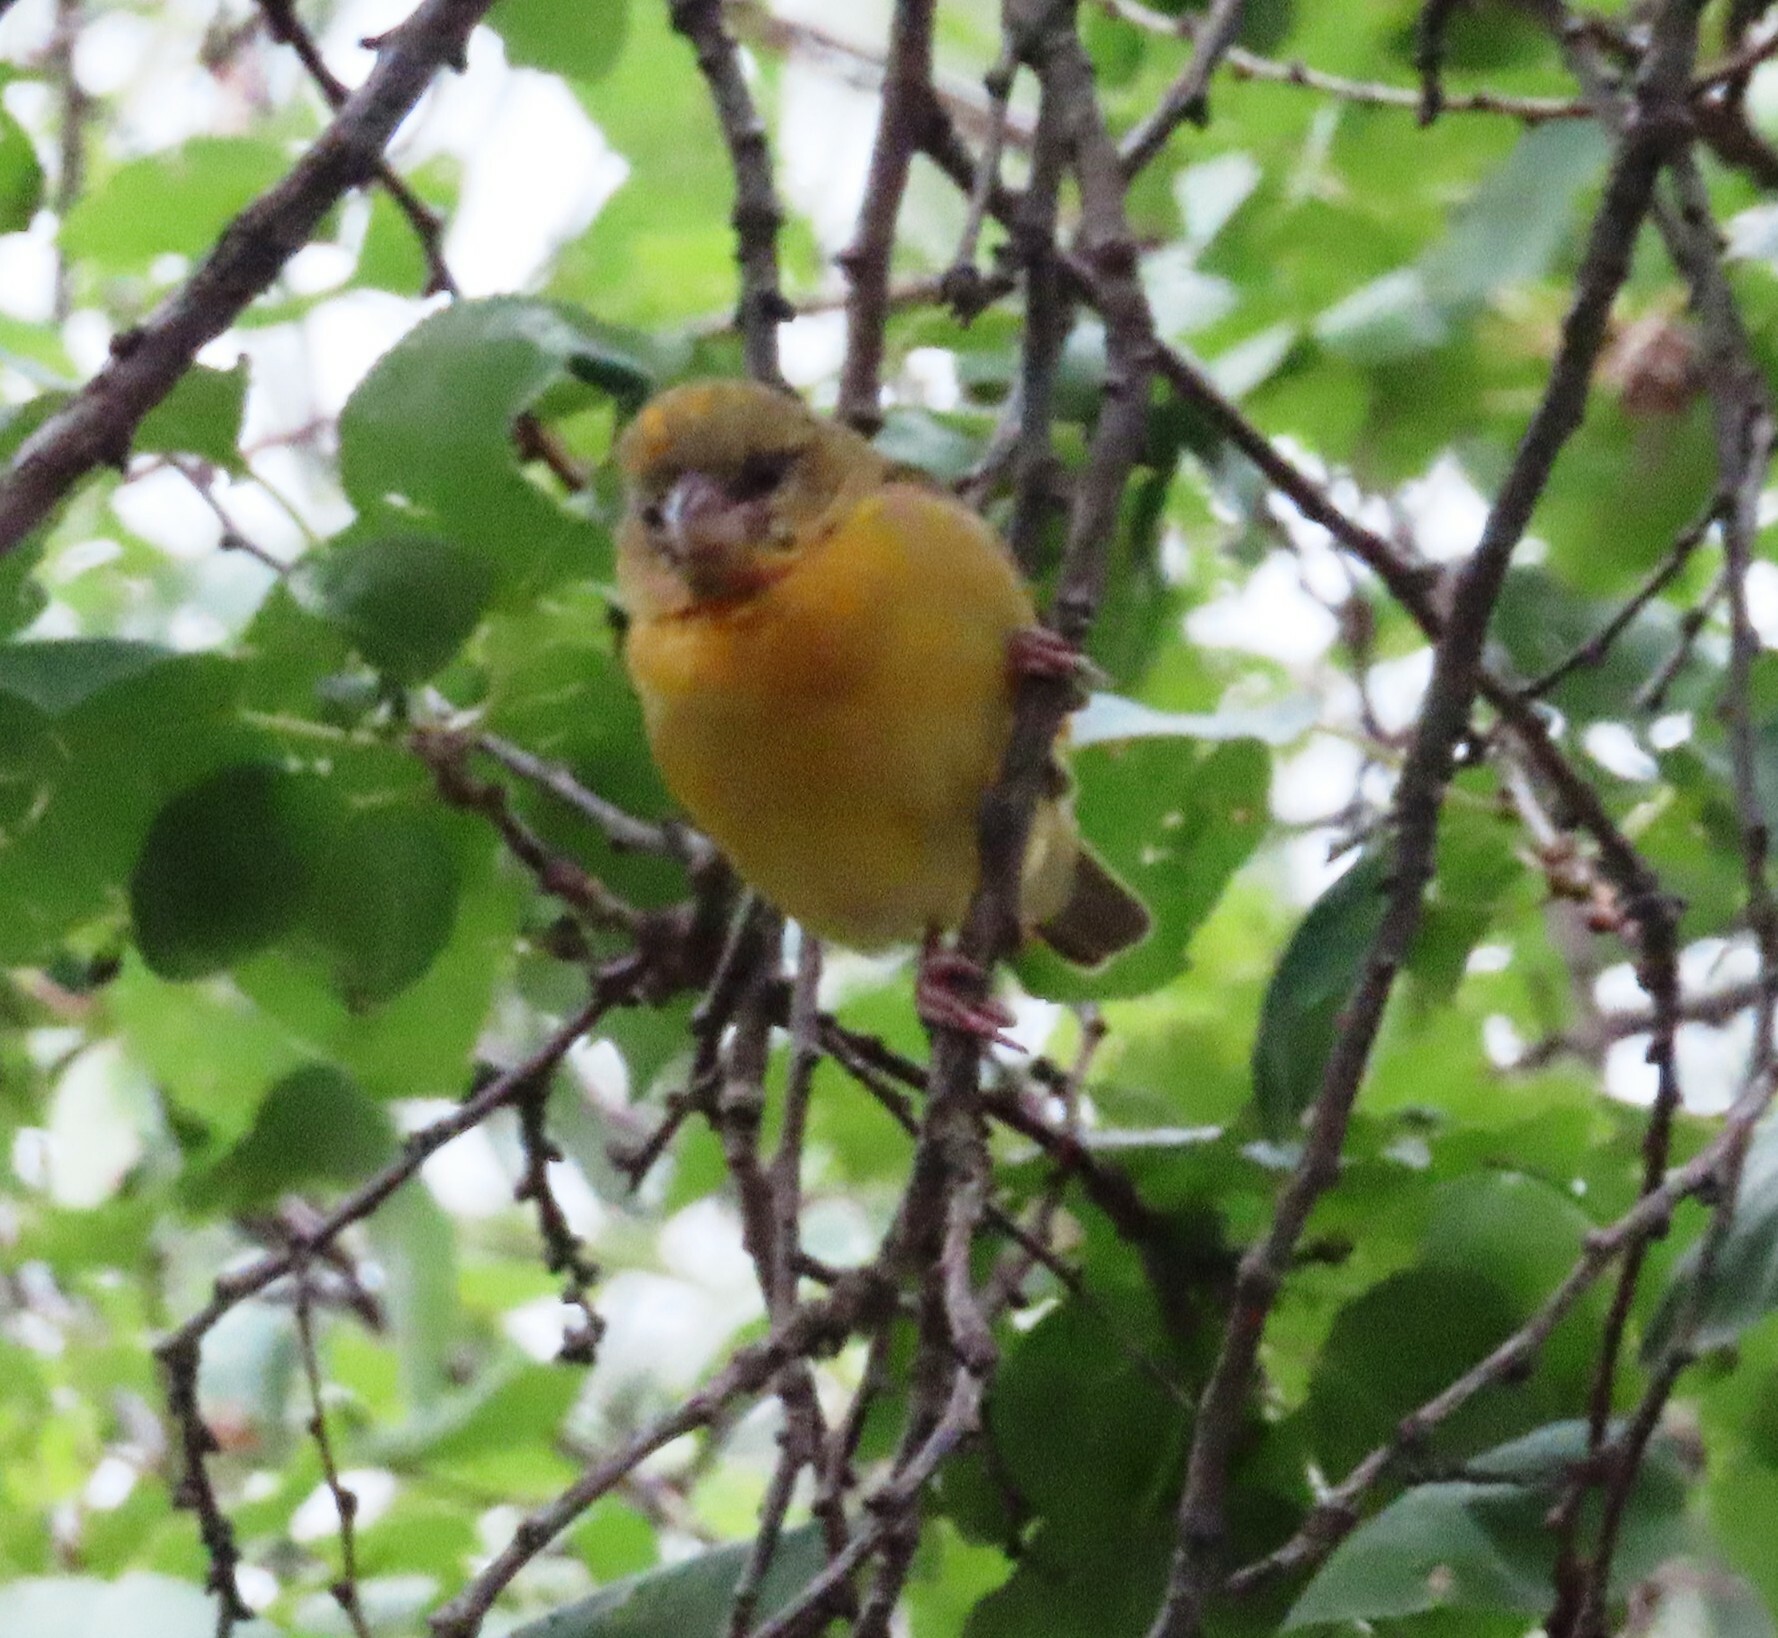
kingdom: Animalia
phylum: Chordata
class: Aves
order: Passeriformes
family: Ploceidae
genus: Ploceus
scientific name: Ploceus velatus
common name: Southern masked weaver
